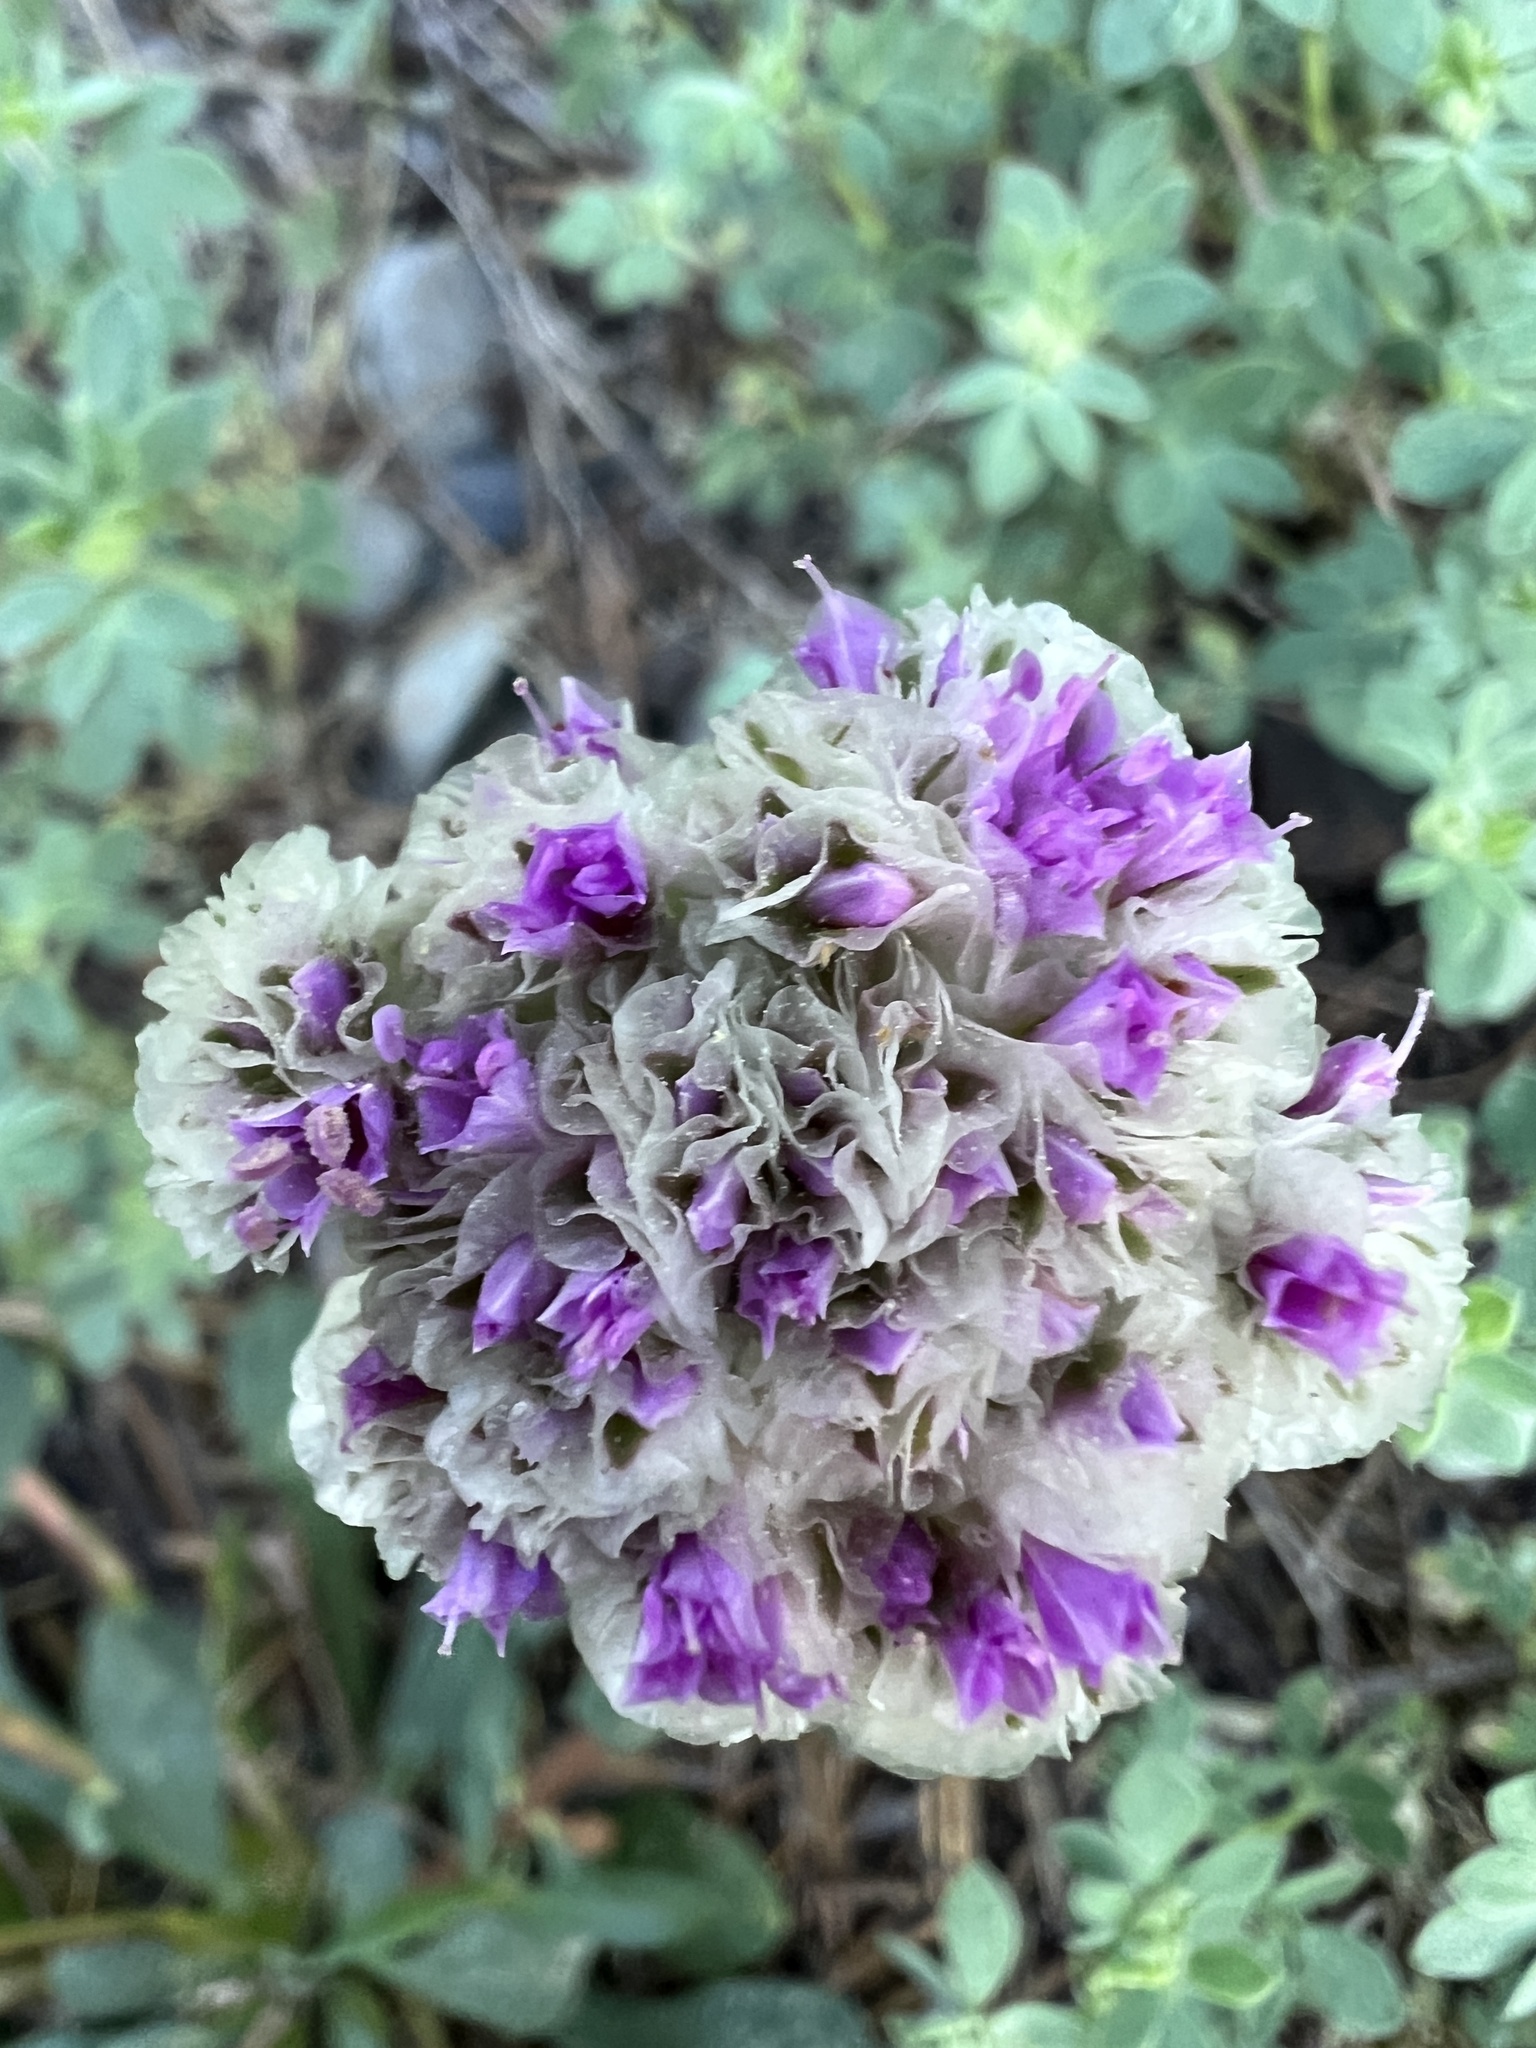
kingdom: Plantae
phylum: Tracheophyta
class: Magnoliopsida
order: Caryophyllales
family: Montiaceae
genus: Calyptridium
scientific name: Calyptridium monospermum
